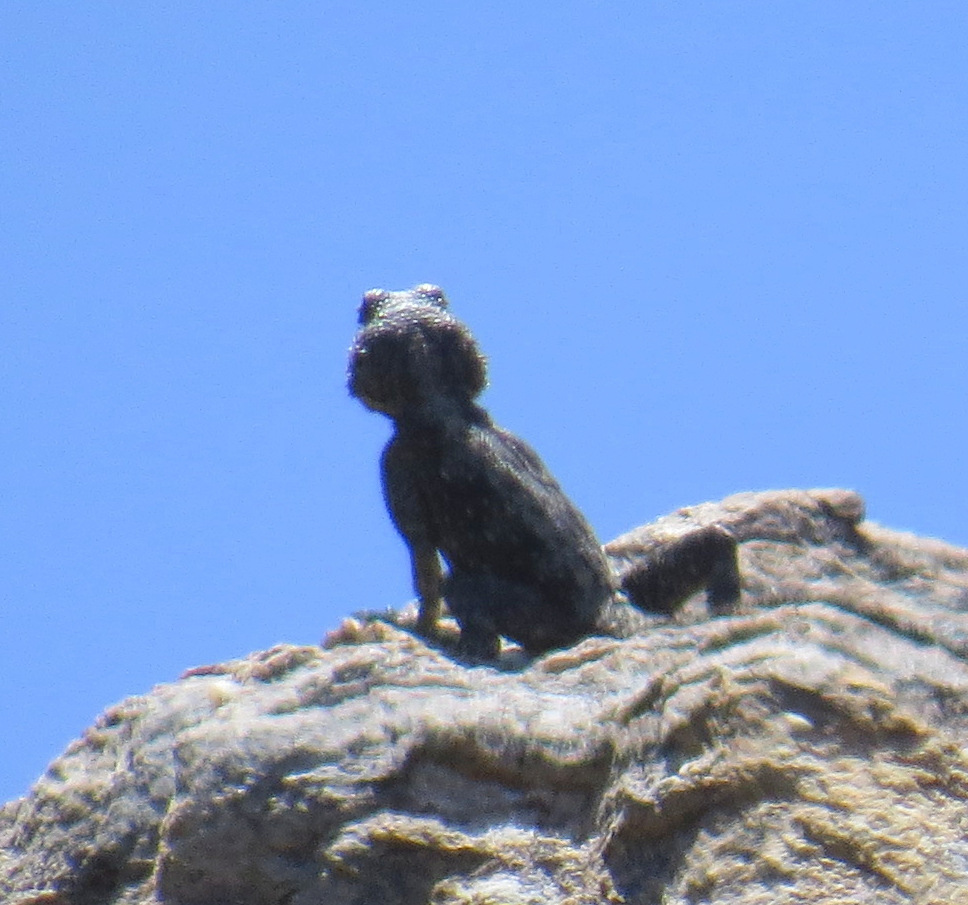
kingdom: Animalia
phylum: Chordata
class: Squamata
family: Agamidae
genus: Agama
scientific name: Agama atra
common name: Southern african rock agama
